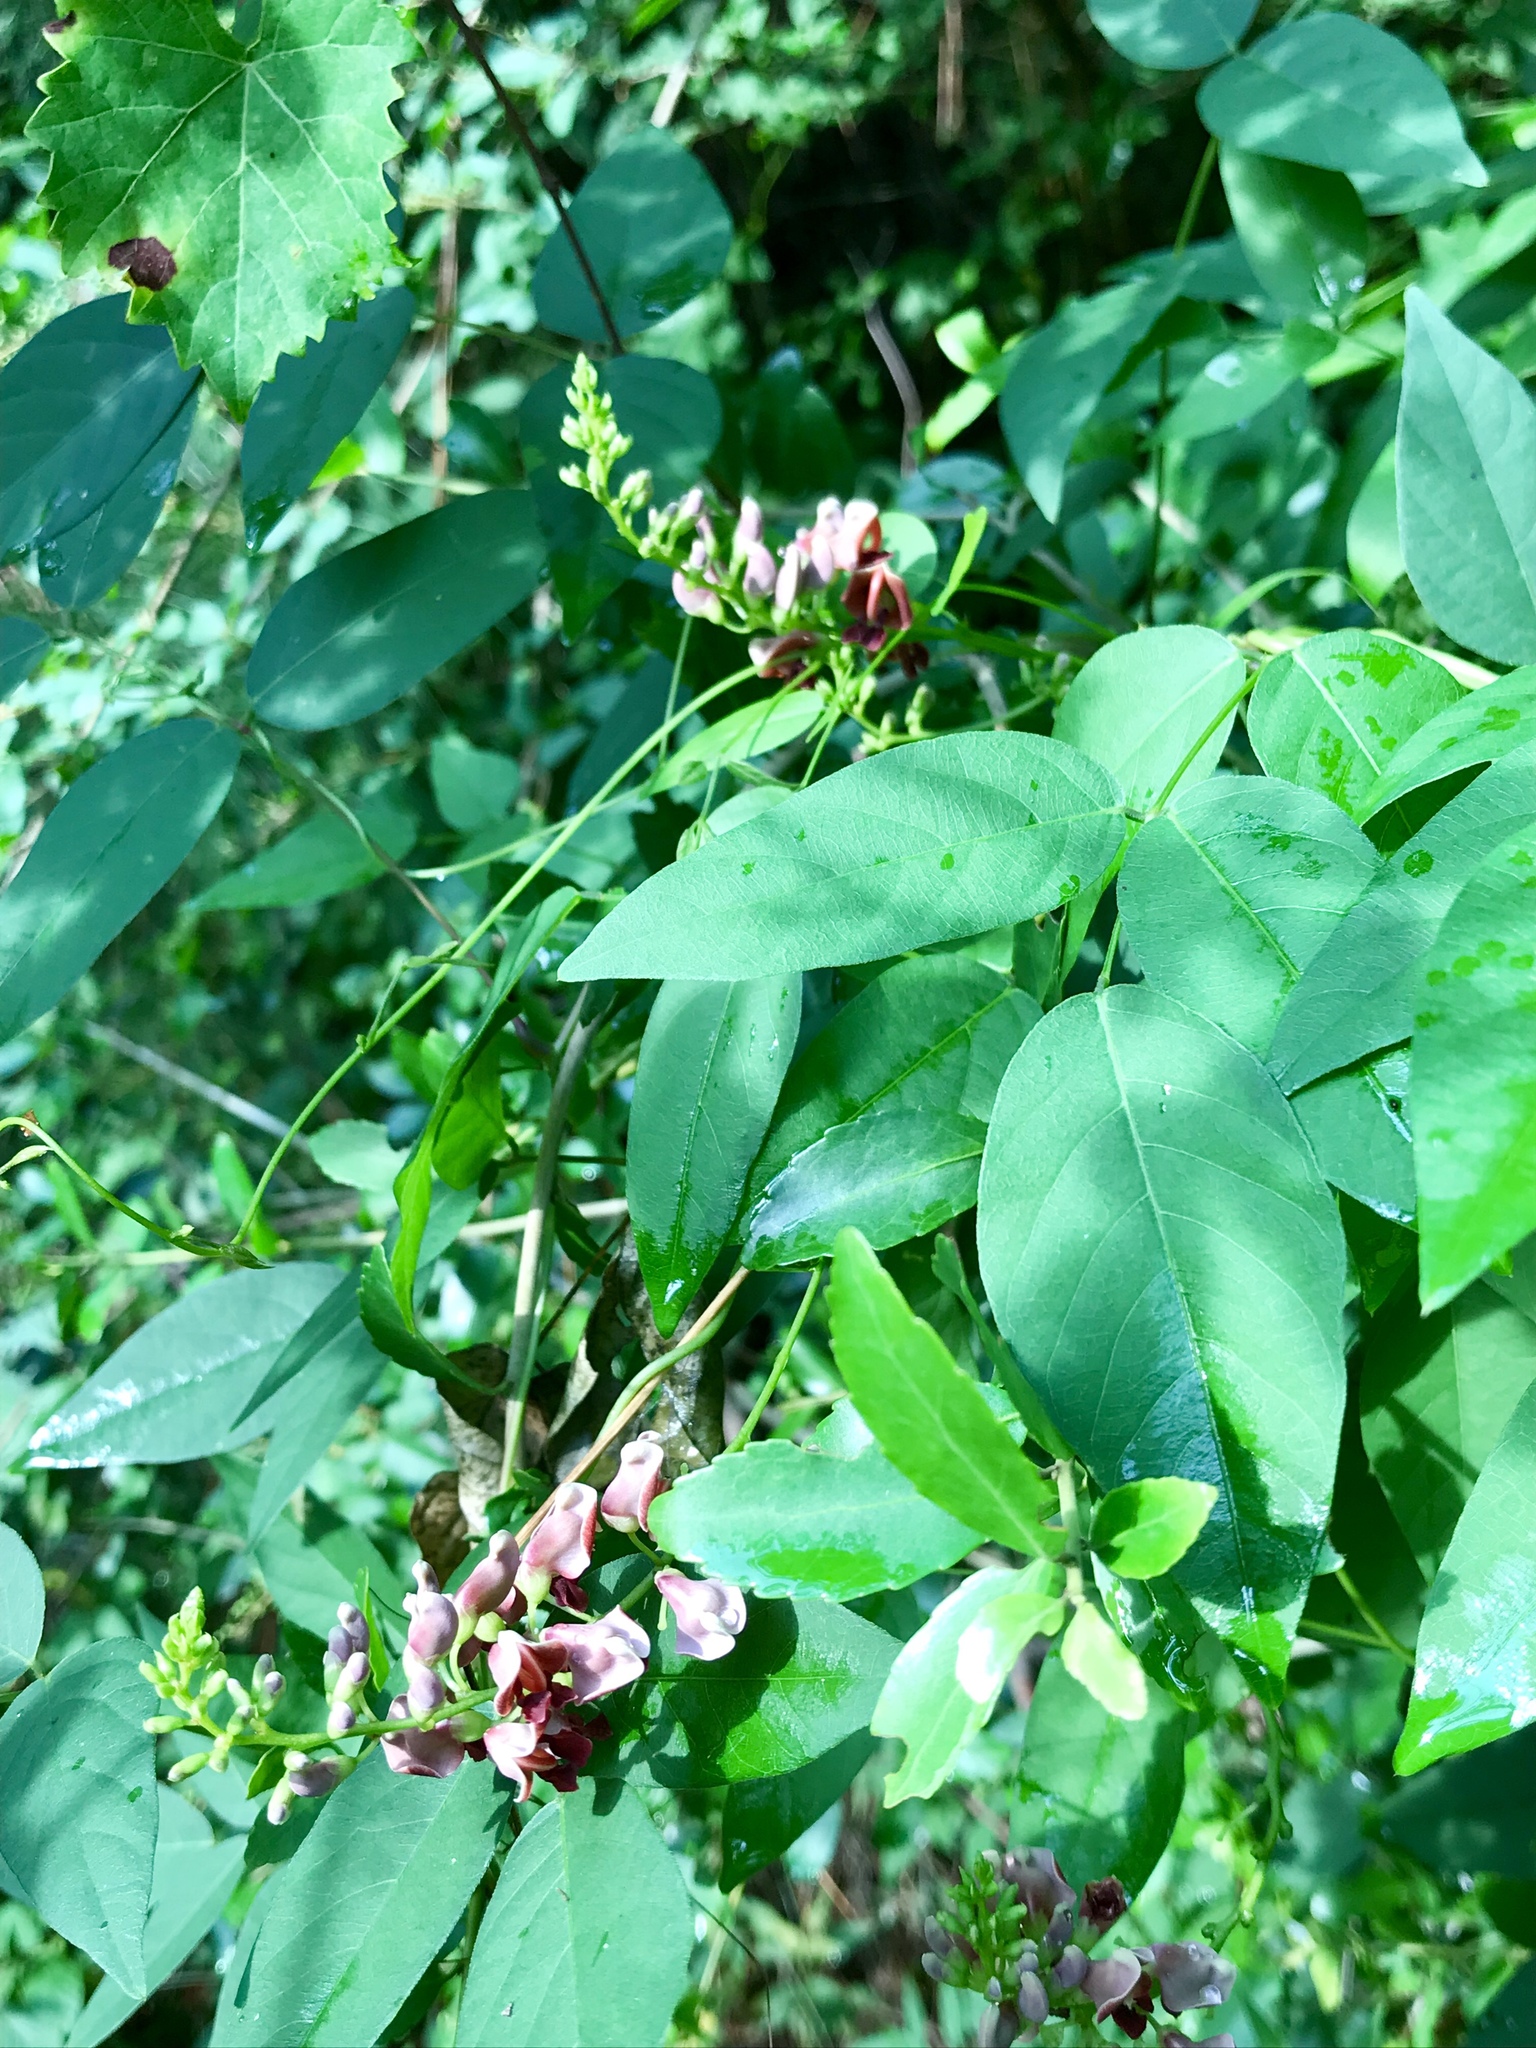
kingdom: Plantae
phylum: Tracheophyta
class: Magnoliopsida
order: Fabales
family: Fabaceae
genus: Apios
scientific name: Apios americana
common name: American potato-bean
